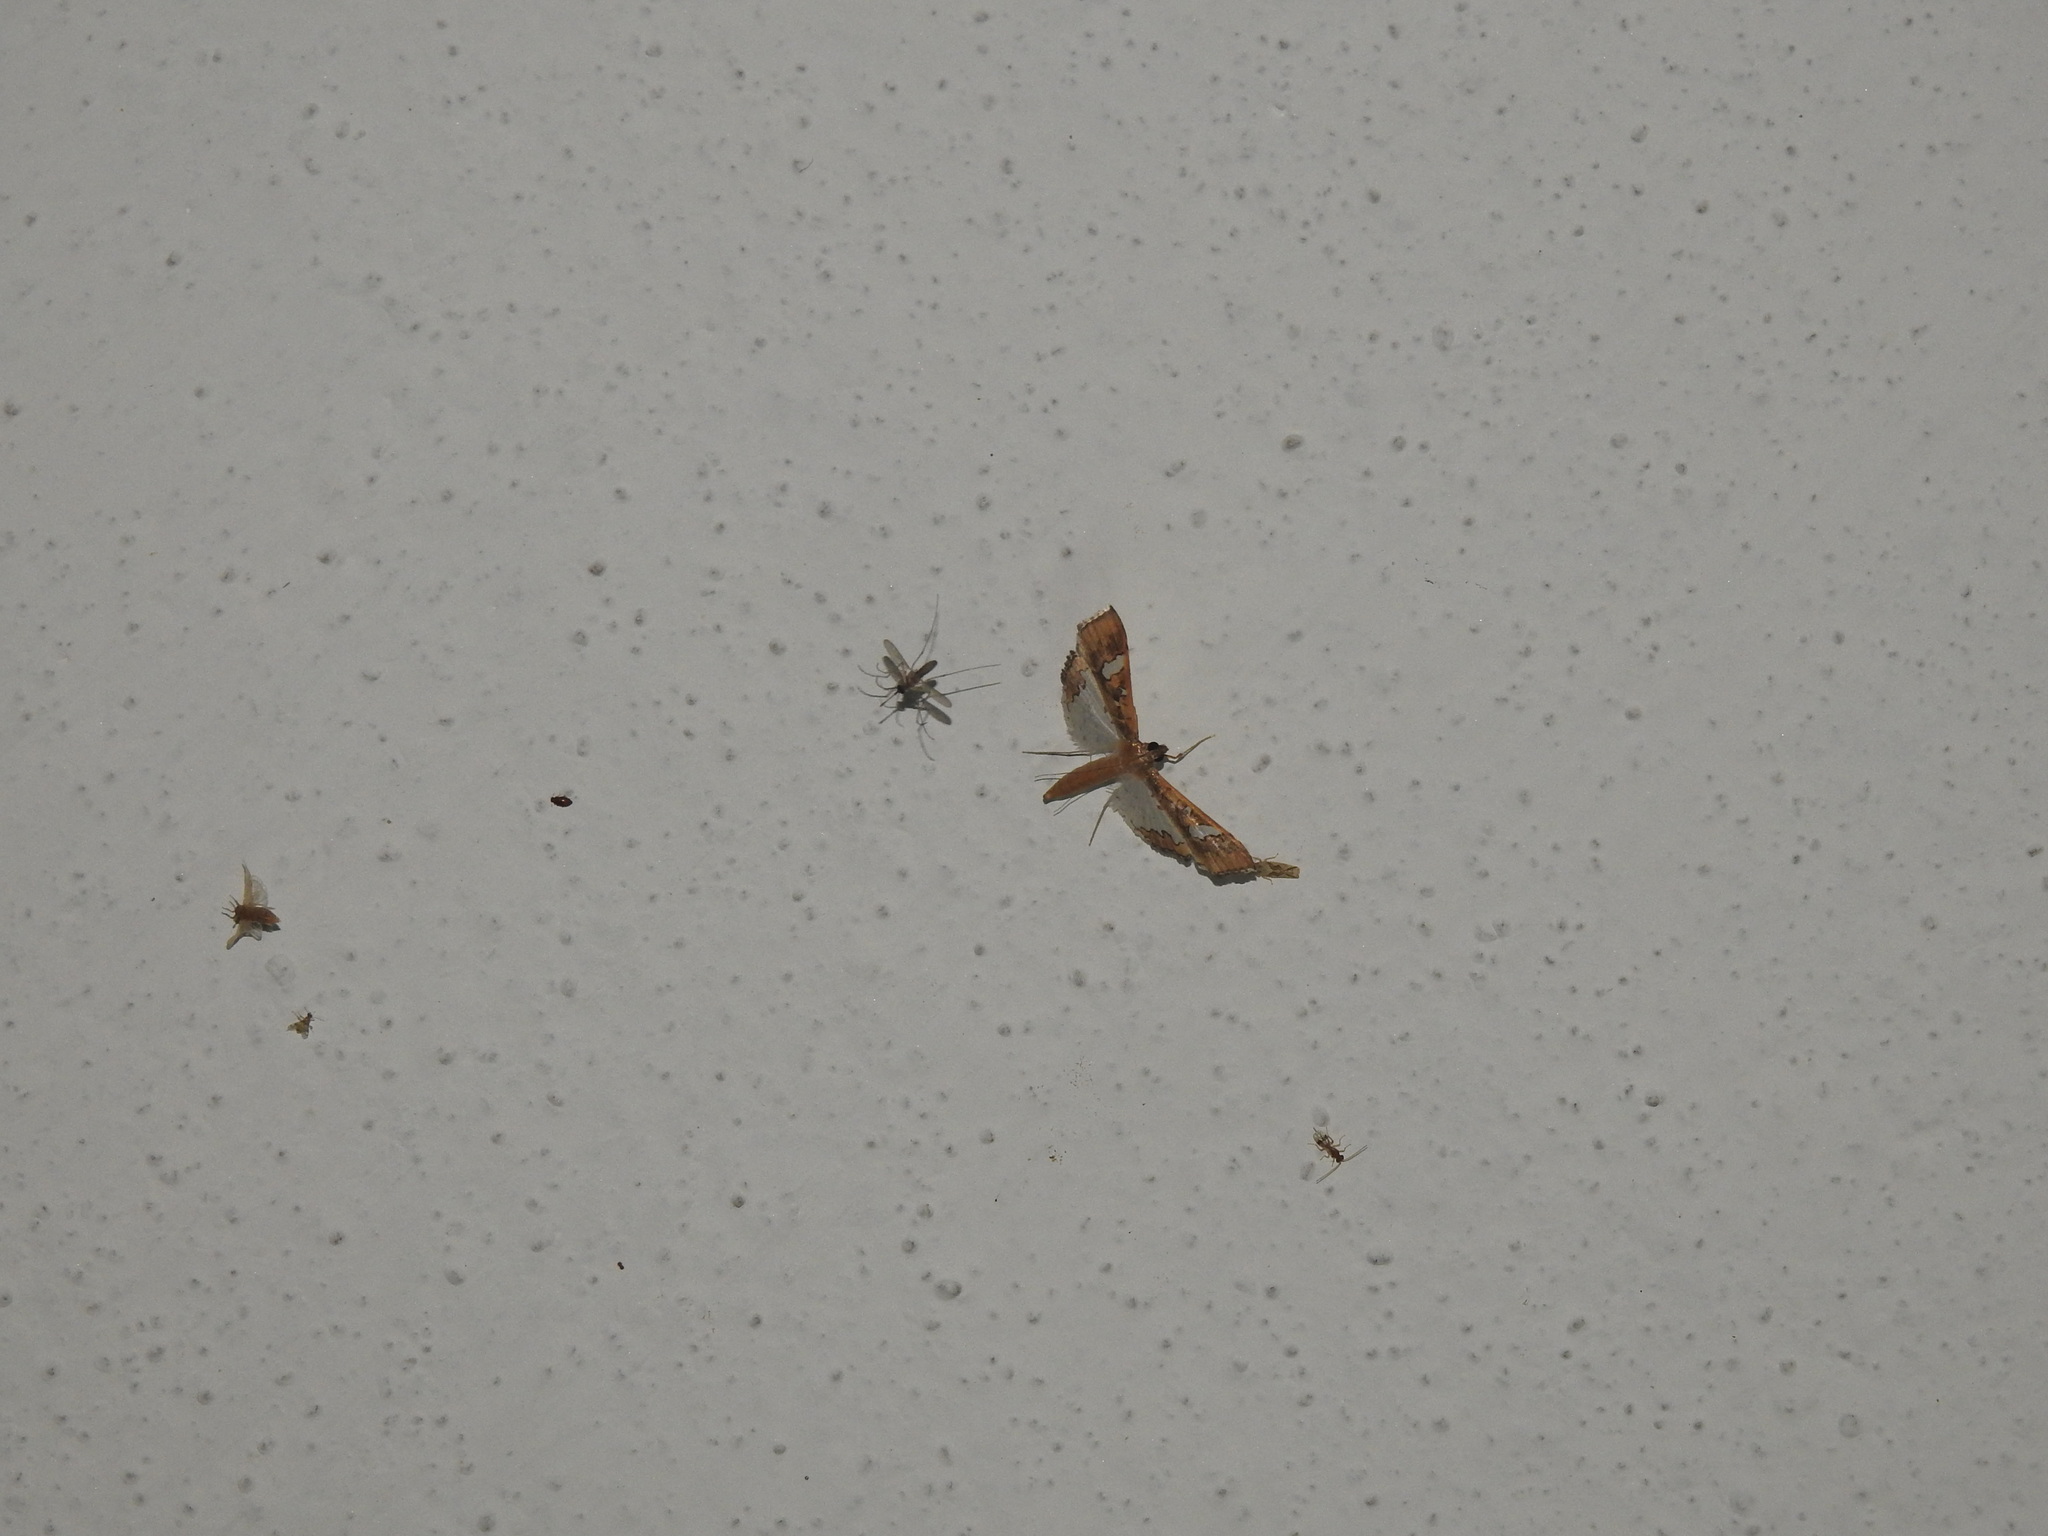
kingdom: Animalia
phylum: Arthropoda
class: Insecta
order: Lepidoptera
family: Crambidae
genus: Maruca
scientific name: Maruca vitrata
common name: Maruca pod borer
